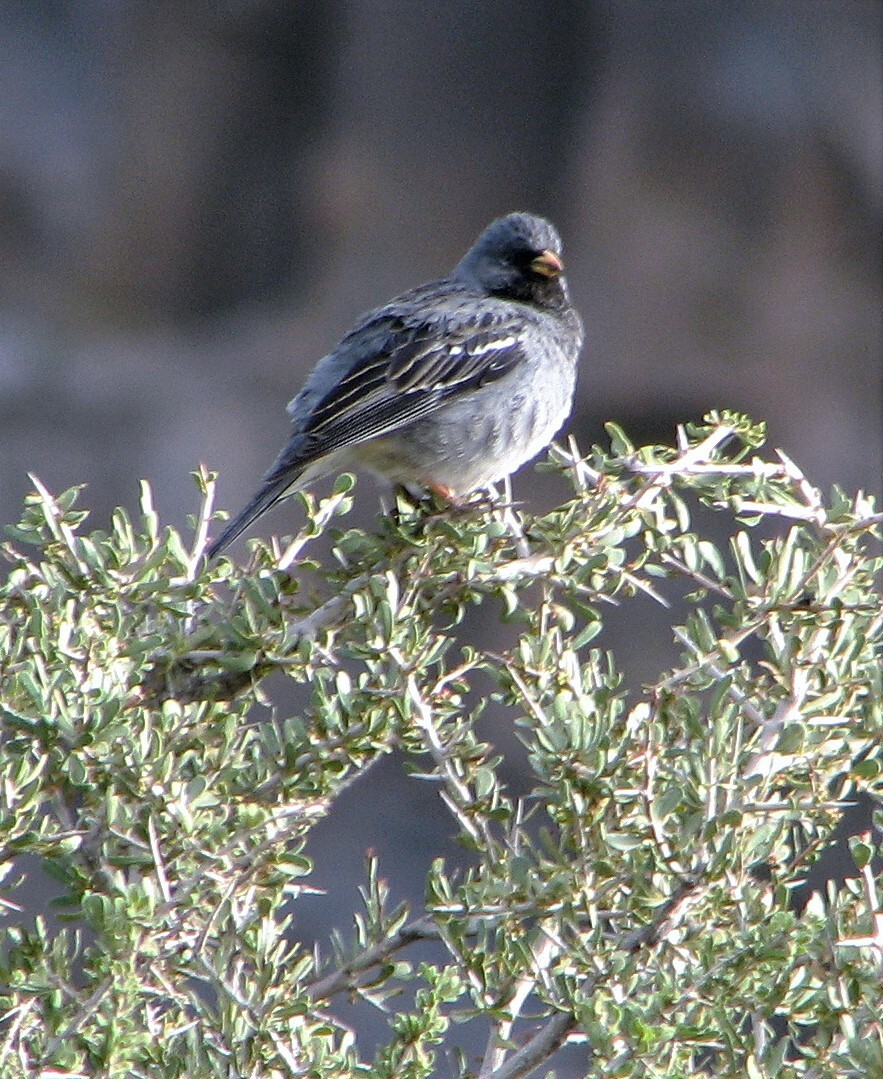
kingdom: Animalia
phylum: Chordata
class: Aves
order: Passeriformes
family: Thraupidae
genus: Rhopospina
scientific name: Rhopospina fruticeti
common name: Mourning sierra finch
